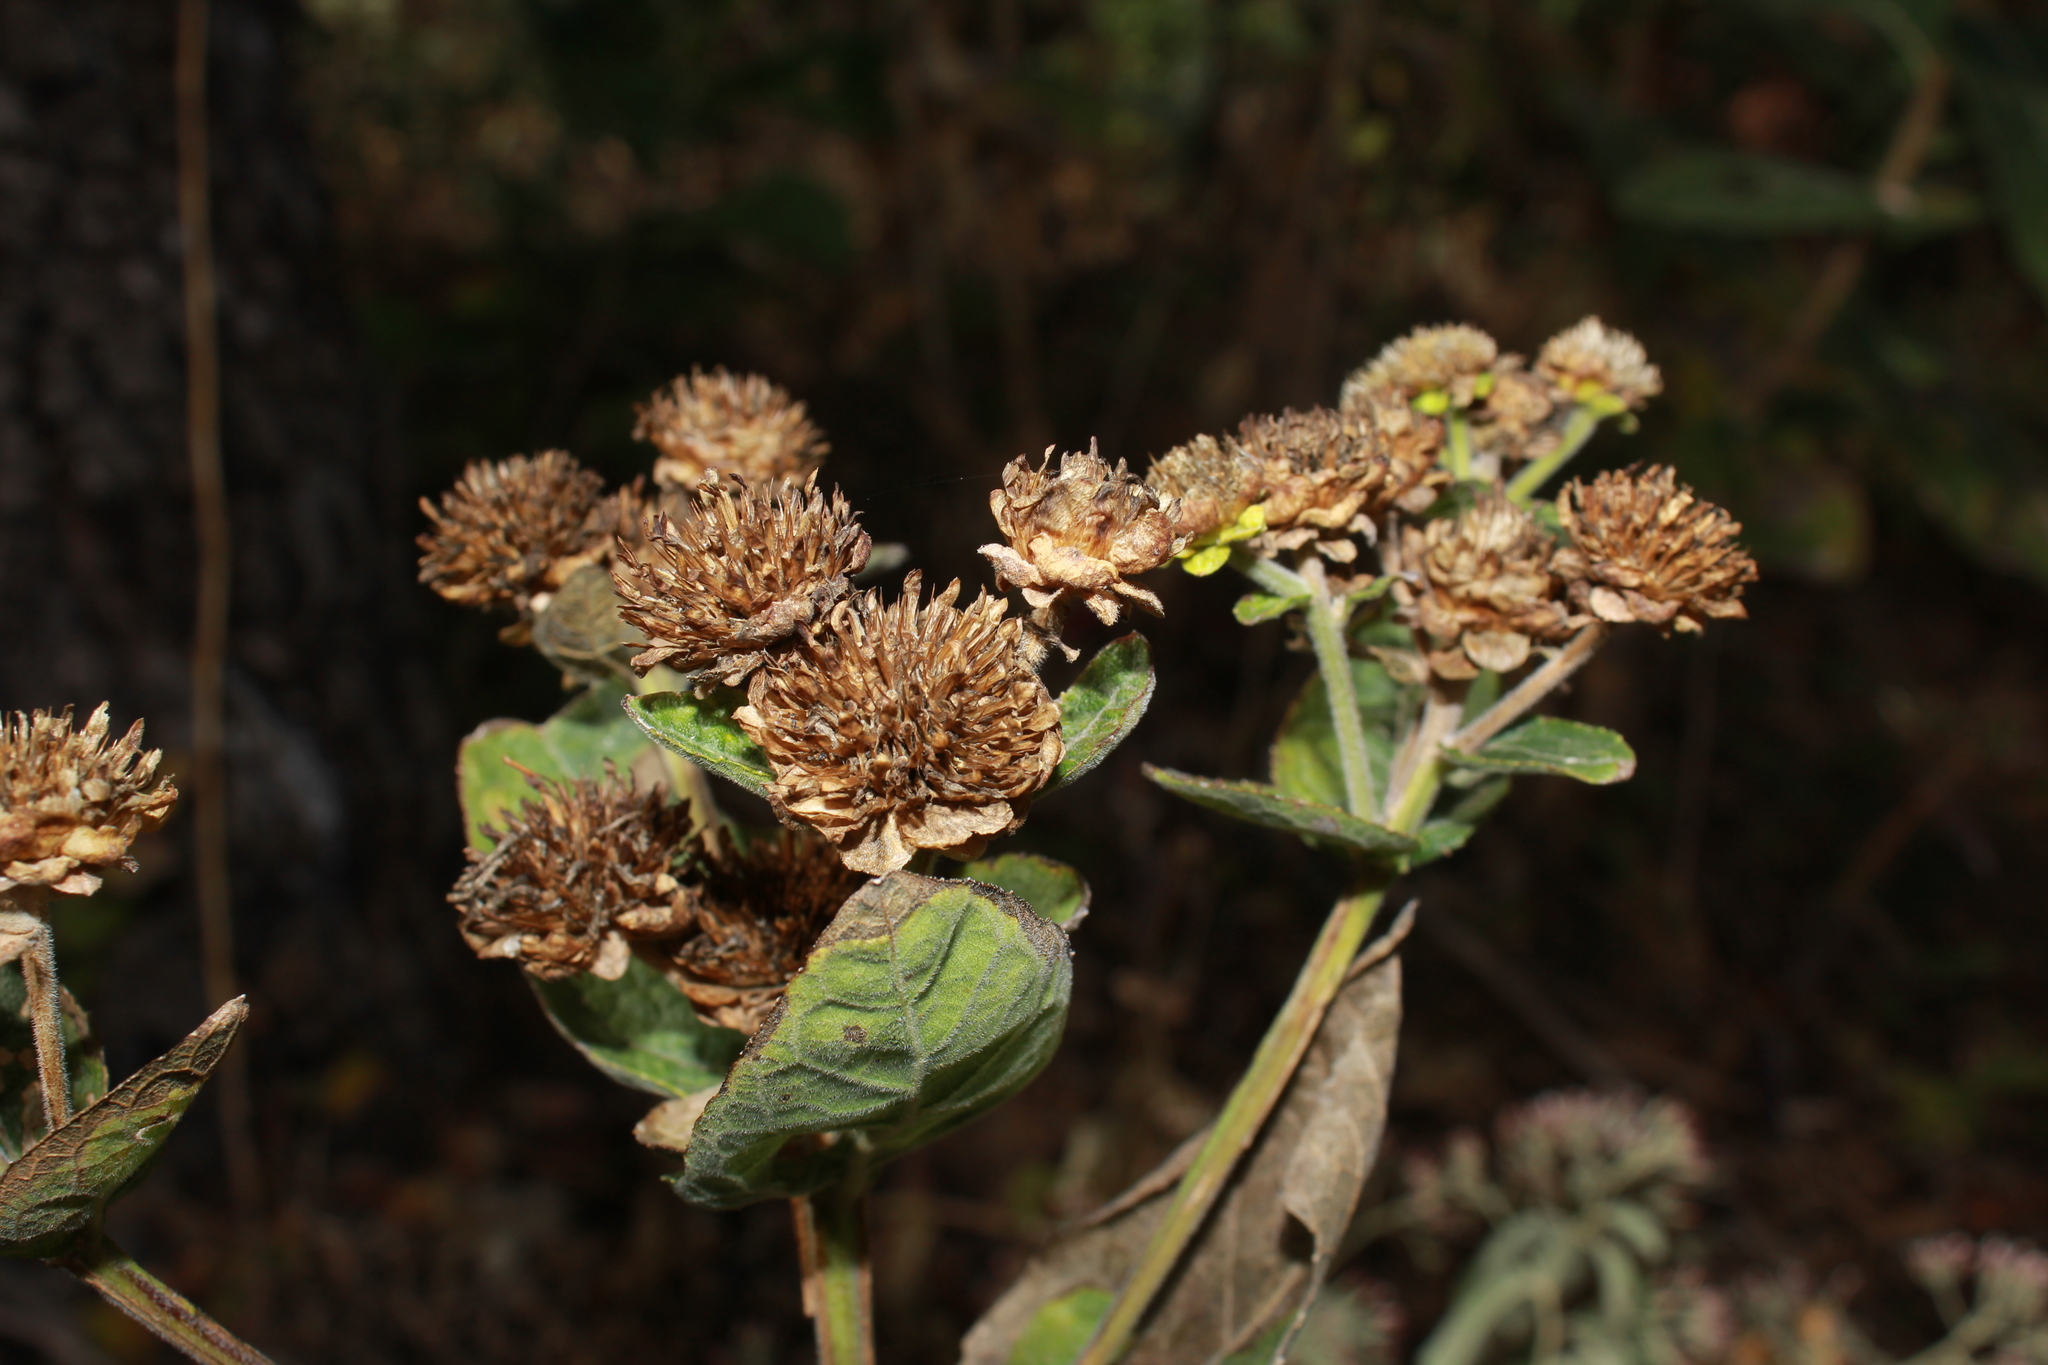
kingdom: Plantae
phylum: Tracheophyta
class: Magnoliopsida
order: Asterales
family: Asteraceae
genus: Verbesina
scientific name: Verbesina sphaerocephala
